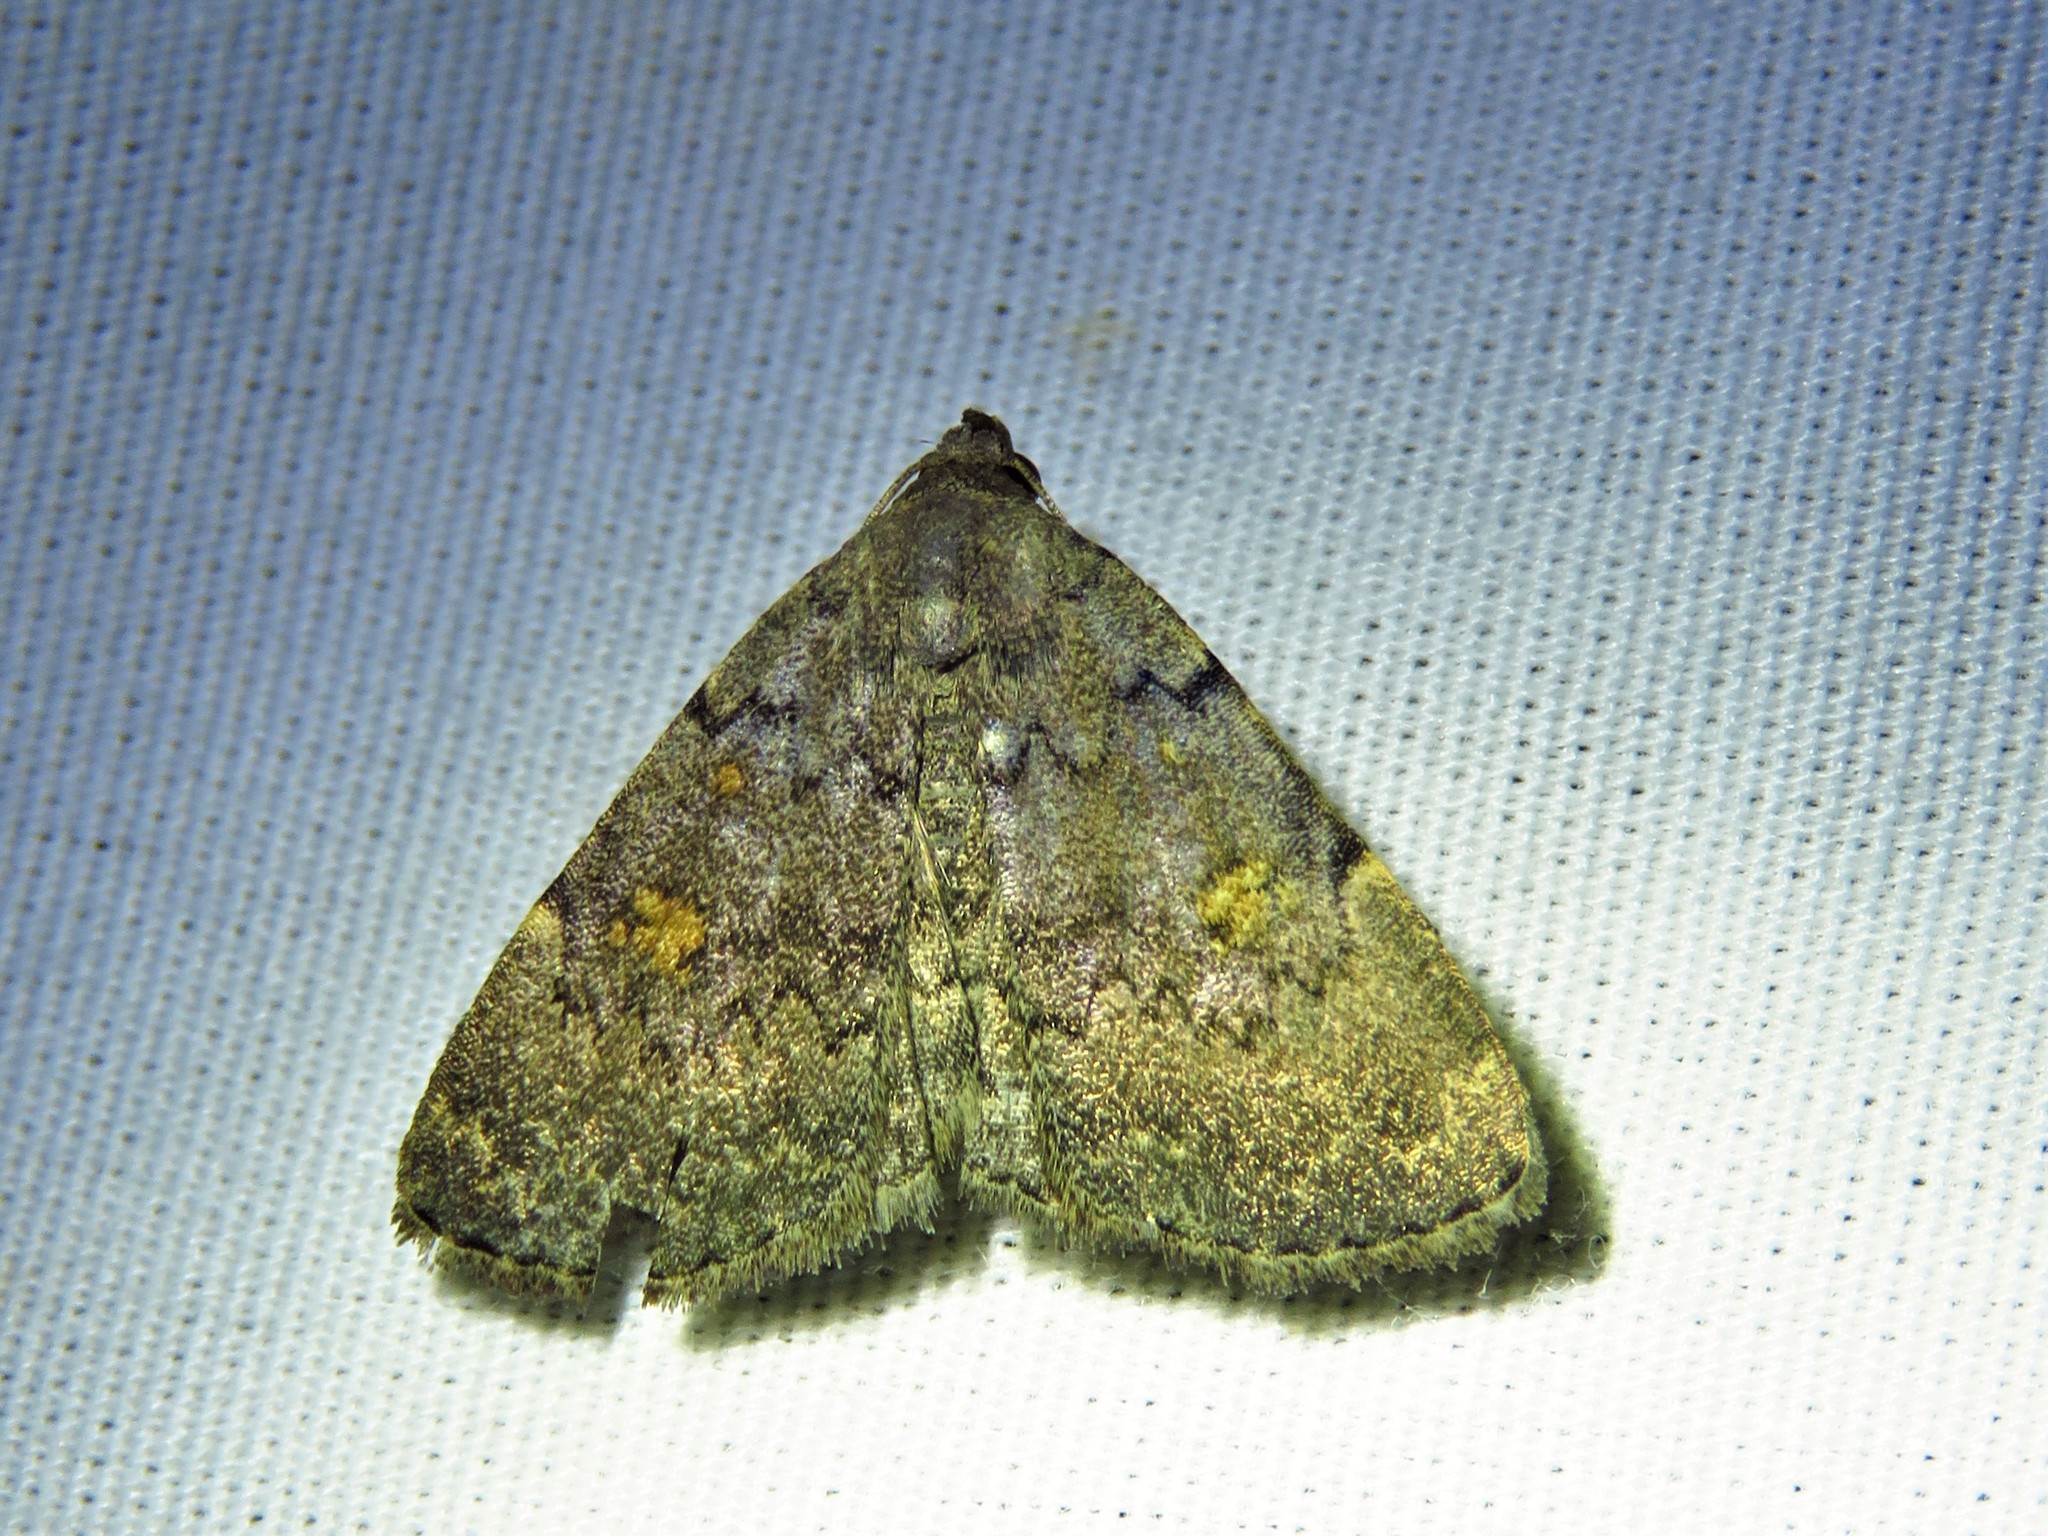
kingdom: Animalia
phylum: Arthropoda
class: Insecta
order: Lepidoptera
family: Erebidae
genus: Idia
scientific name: Idia aemula
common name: Common idia moth
